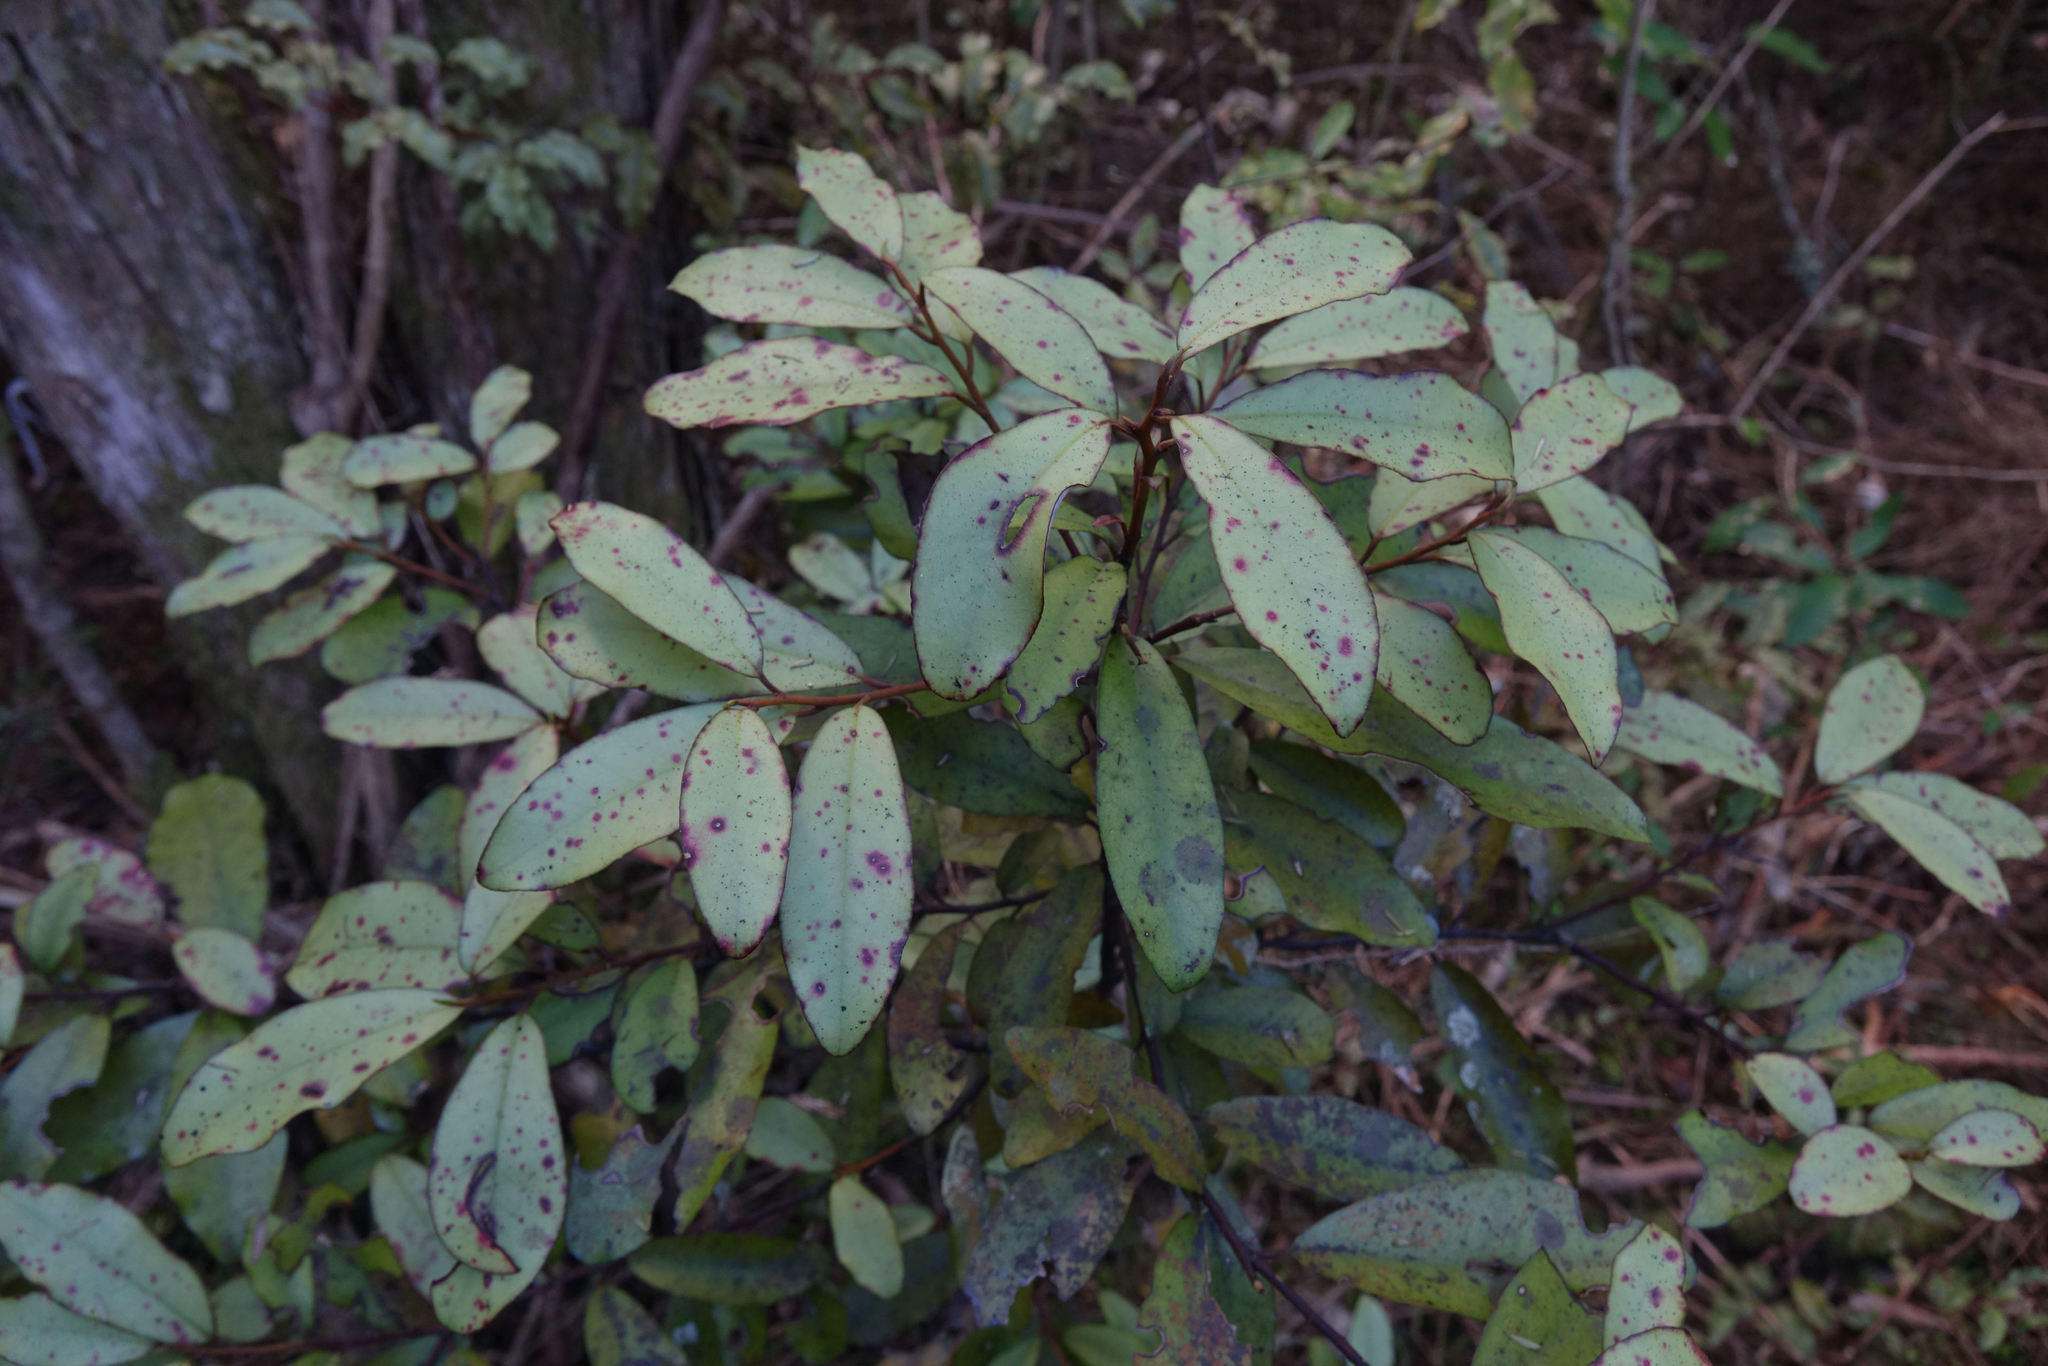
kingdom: Plantae
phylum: Tracheophyta
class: Magnoliopsida
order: Canellales
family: Winteraceae
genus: Pseudowintera
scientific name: Pseudowintera colorata
